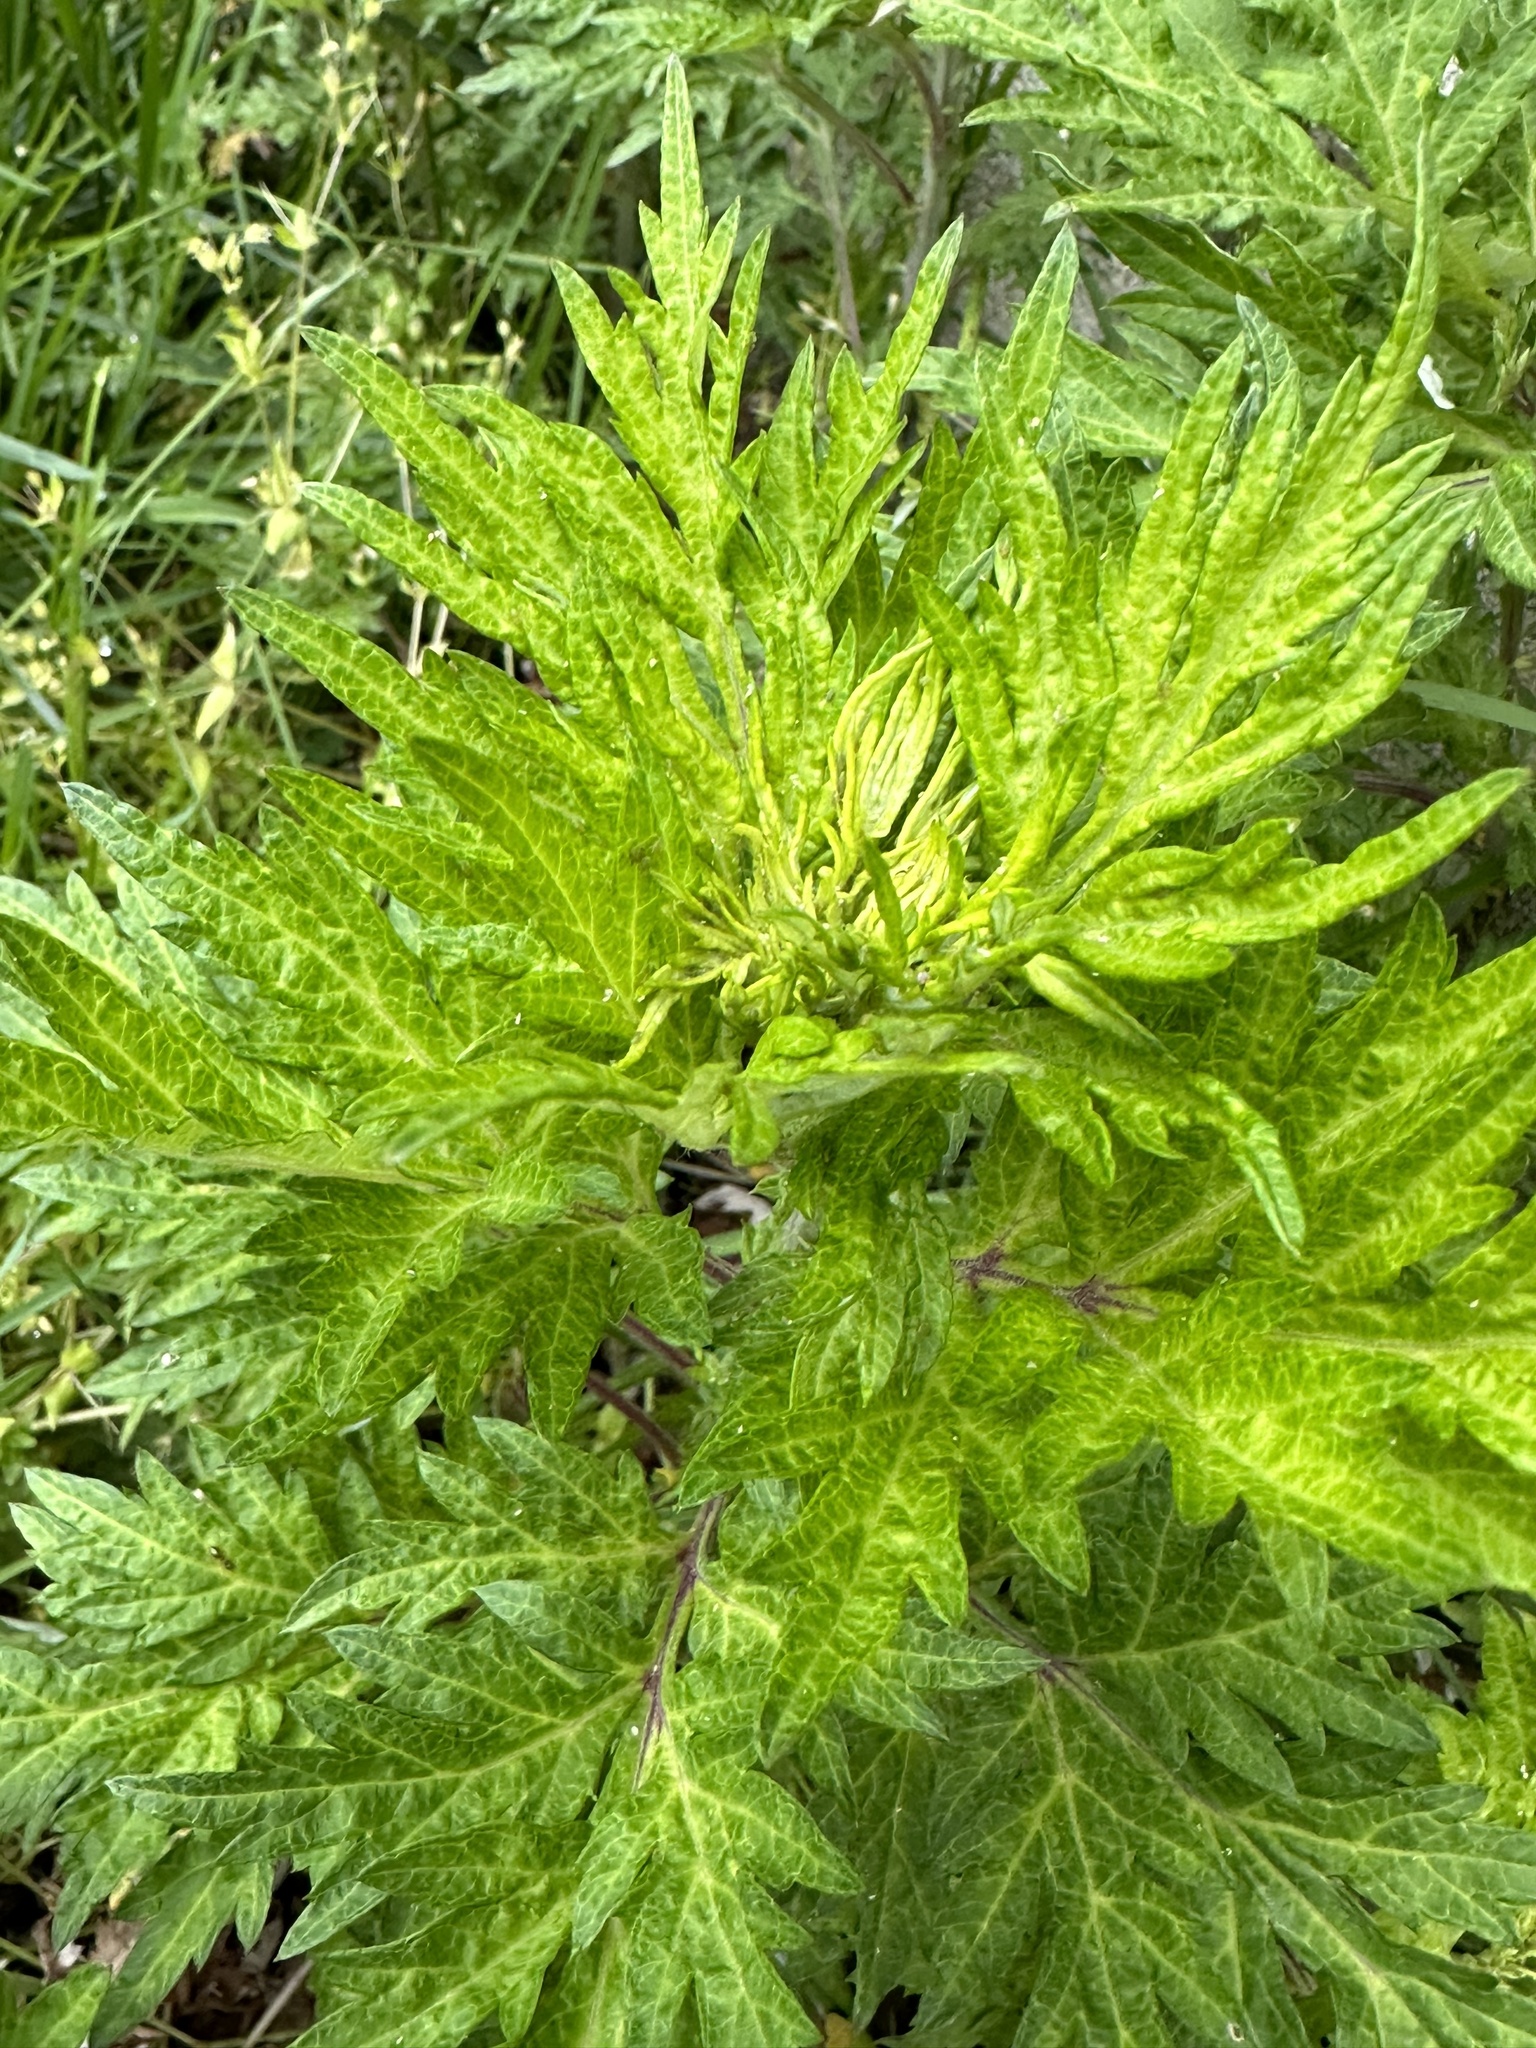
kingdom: Plantae
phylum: Tracheophyta
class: Magnoliopsida
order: Asterales
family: Asteraceae
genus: Artemisia
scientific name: Artemisia vulgaris
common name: Mugwort
